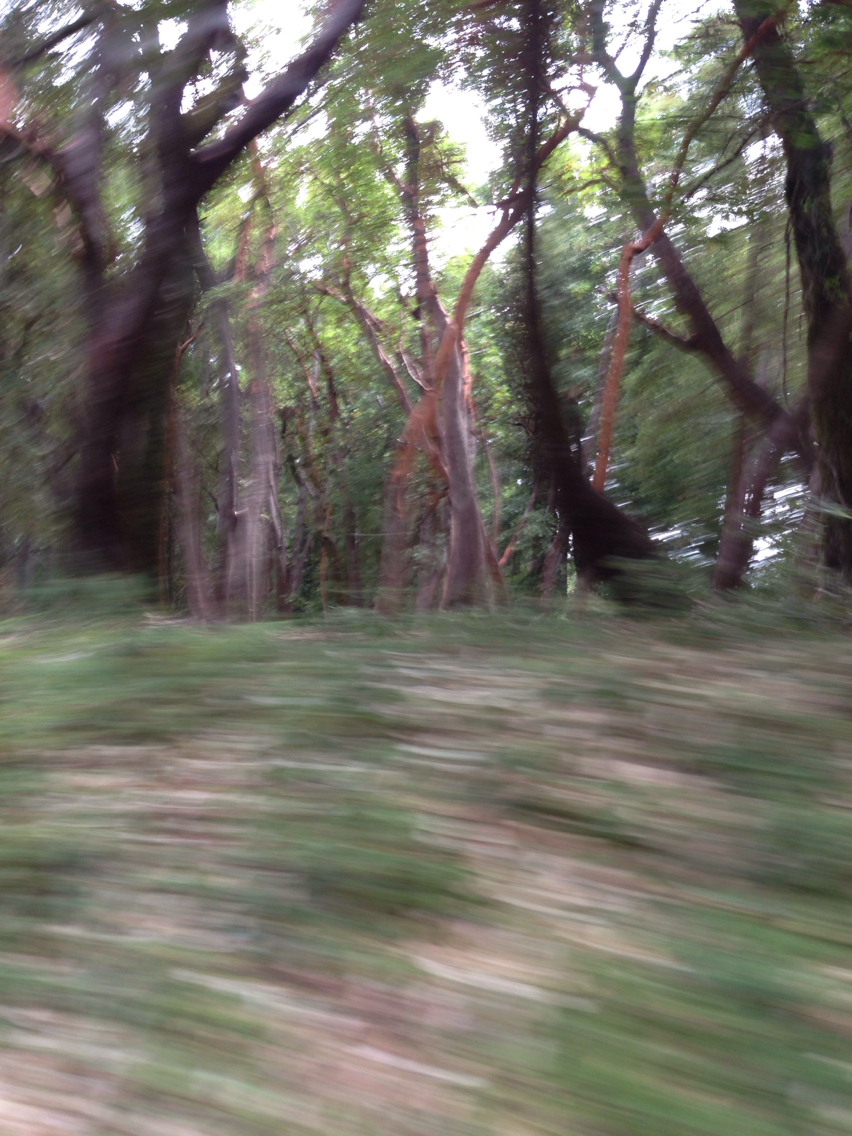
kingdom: Plantae
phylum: Tracheophyta
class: Magnoliopsida
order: Ericales
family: Ericaceae
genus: Arbutus
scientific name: Arbutus menziesii
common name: Pacific madrone
